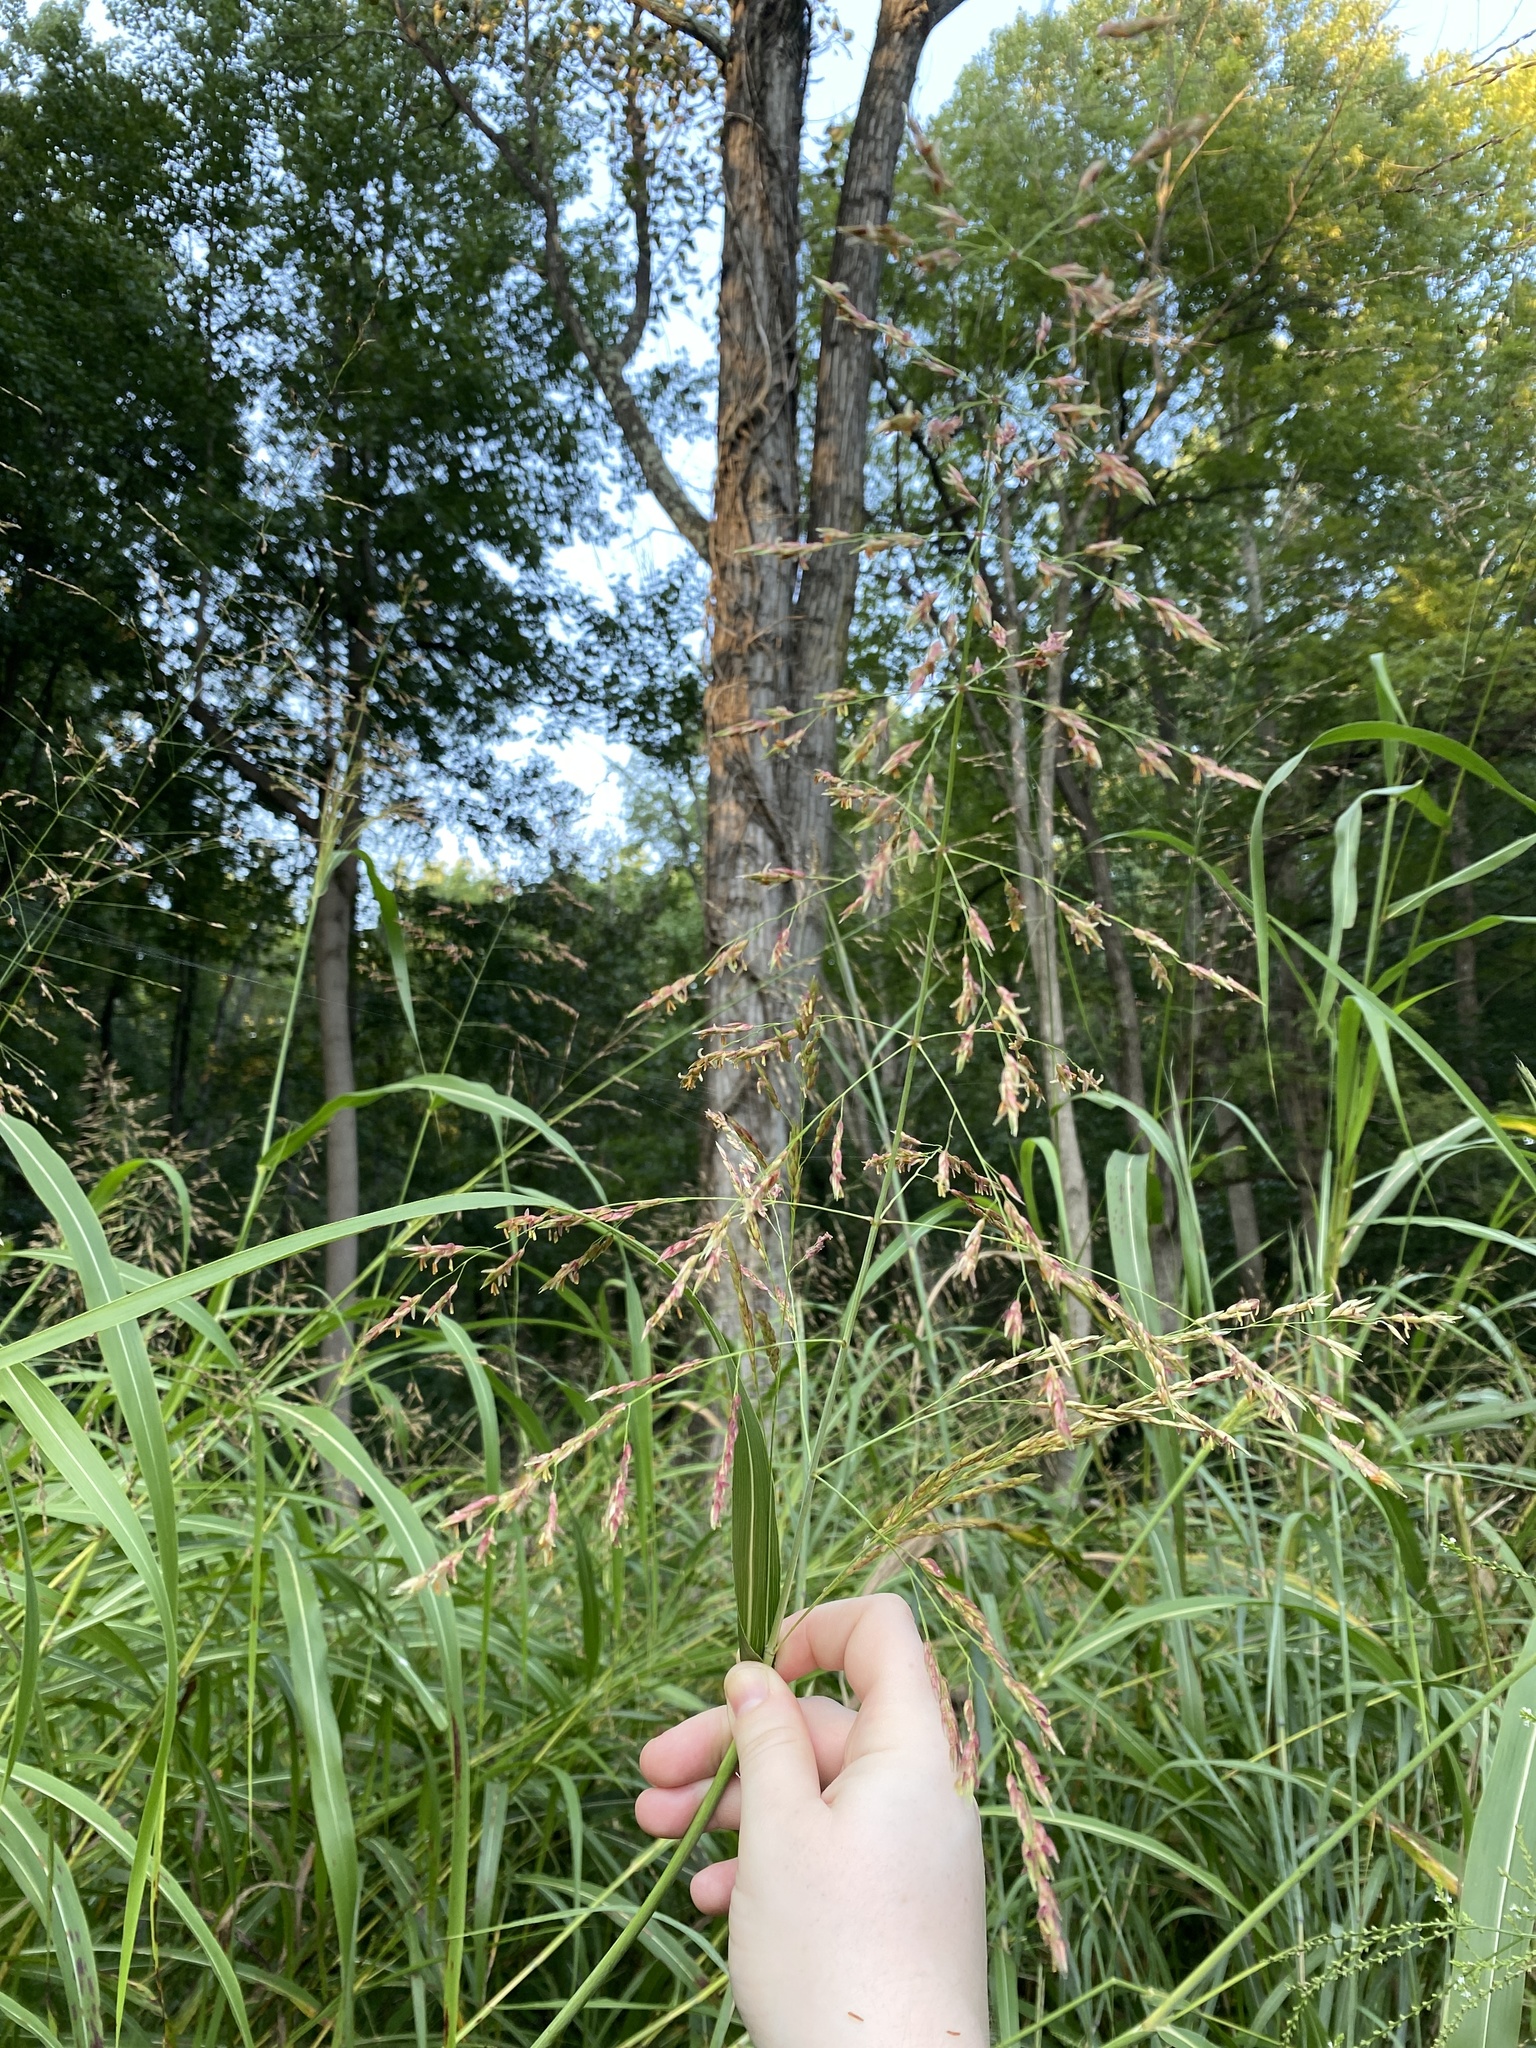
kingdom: Plantae
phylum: Tracheophyta
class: Liliopsida
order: Poales
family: Poaceae
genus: Sorghum
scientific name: Sorghum halepense
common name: Johnson-grass
